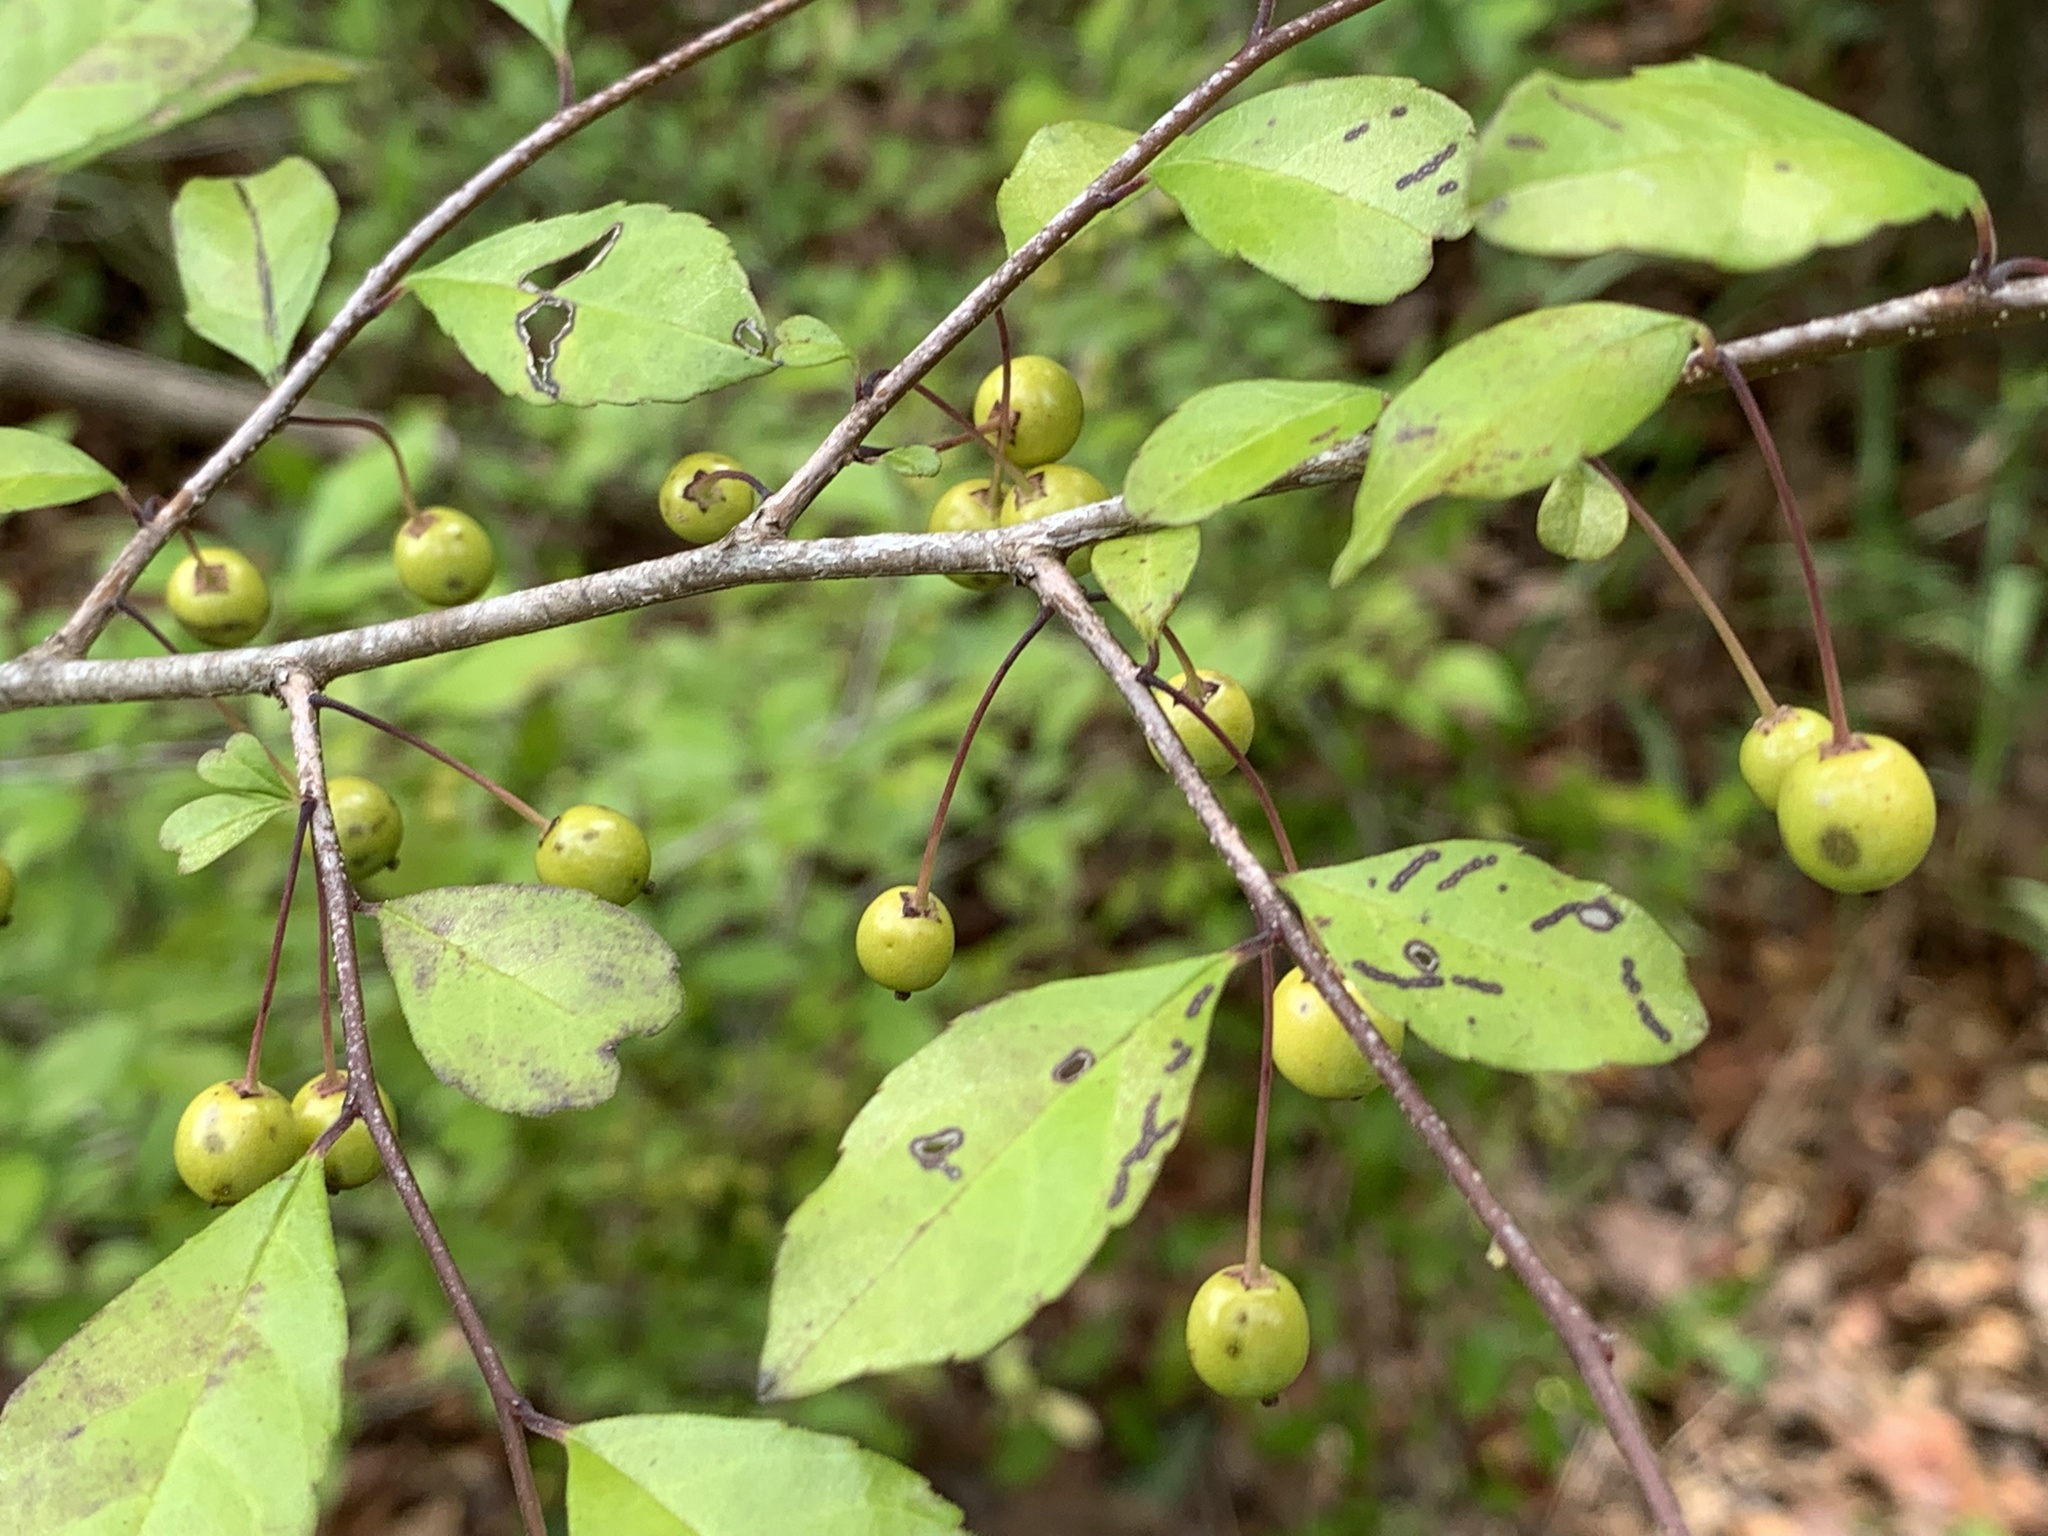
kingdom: Plantae
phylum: Tracheophyta
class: Magnoliopsida
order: Aquifoliales
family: Aquifoliaceae
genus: Ilex
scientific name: Ilex longipes
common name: Georgia holly
